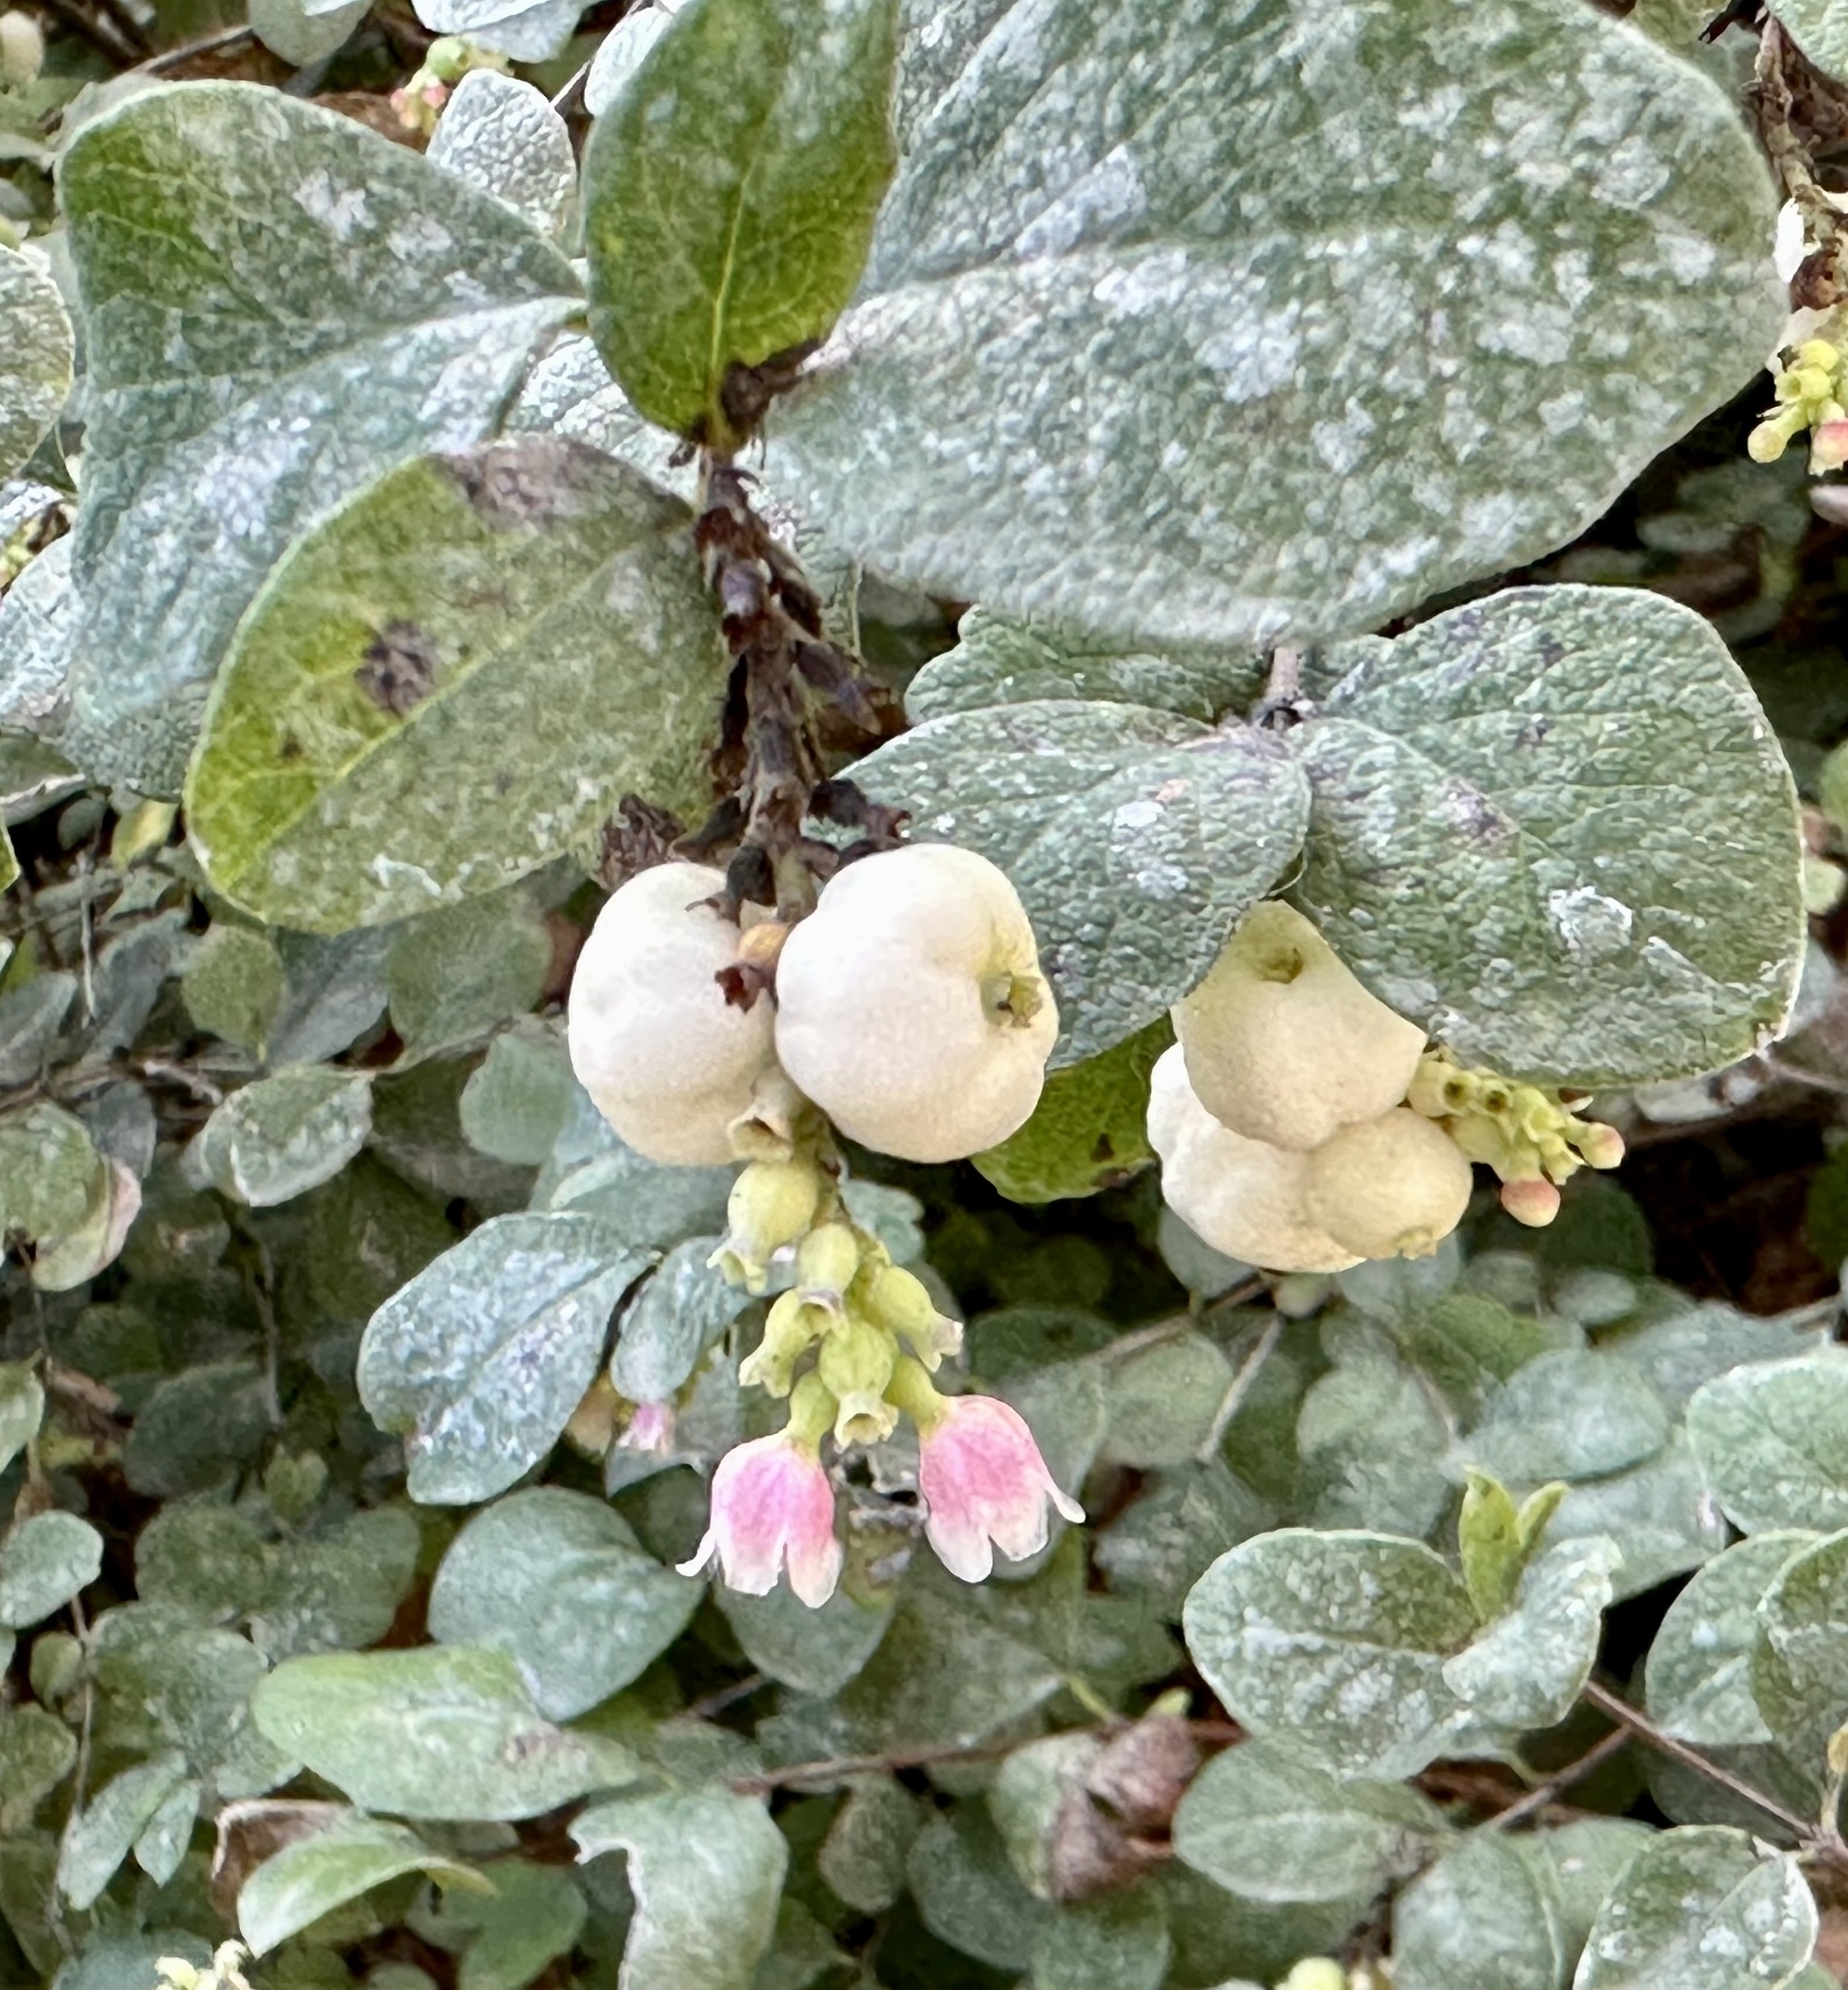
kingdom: Plantae
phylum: Tracheophyta
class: Magnoliopsida
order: Dipsacales
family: Caprifoliaceae
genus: Symphoricarpos
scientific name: Symphoricarpos albus
